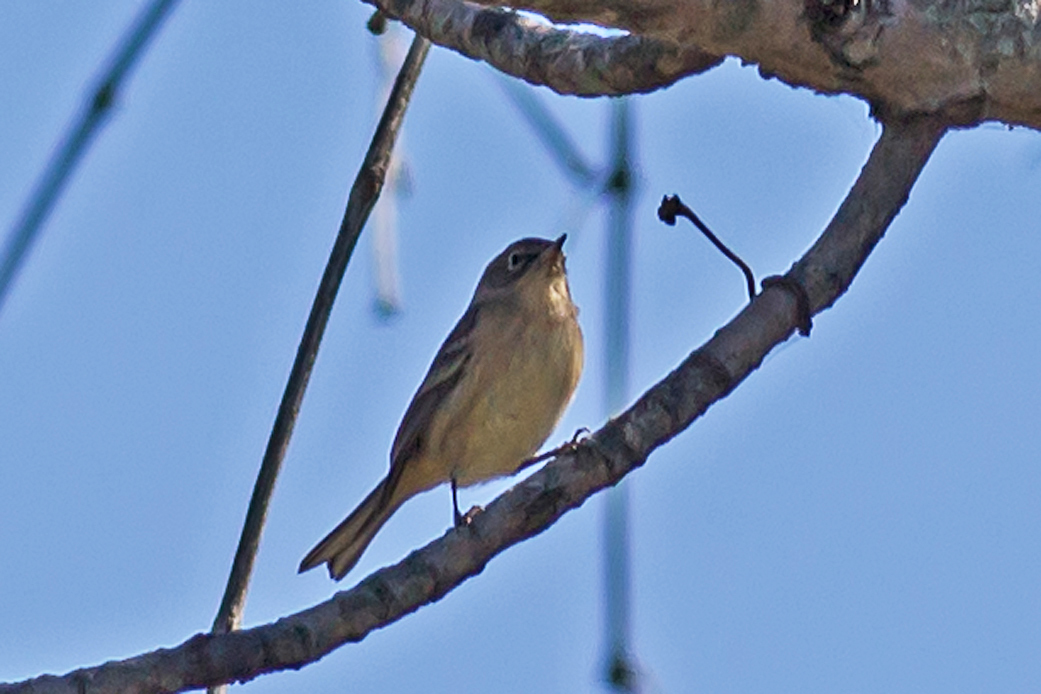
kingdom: Animalia
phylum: Chordata
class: Aves
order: Passeriformes
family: Parulidae
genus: Setophaga
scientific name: Setophaga pinus
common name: Pine warbler
